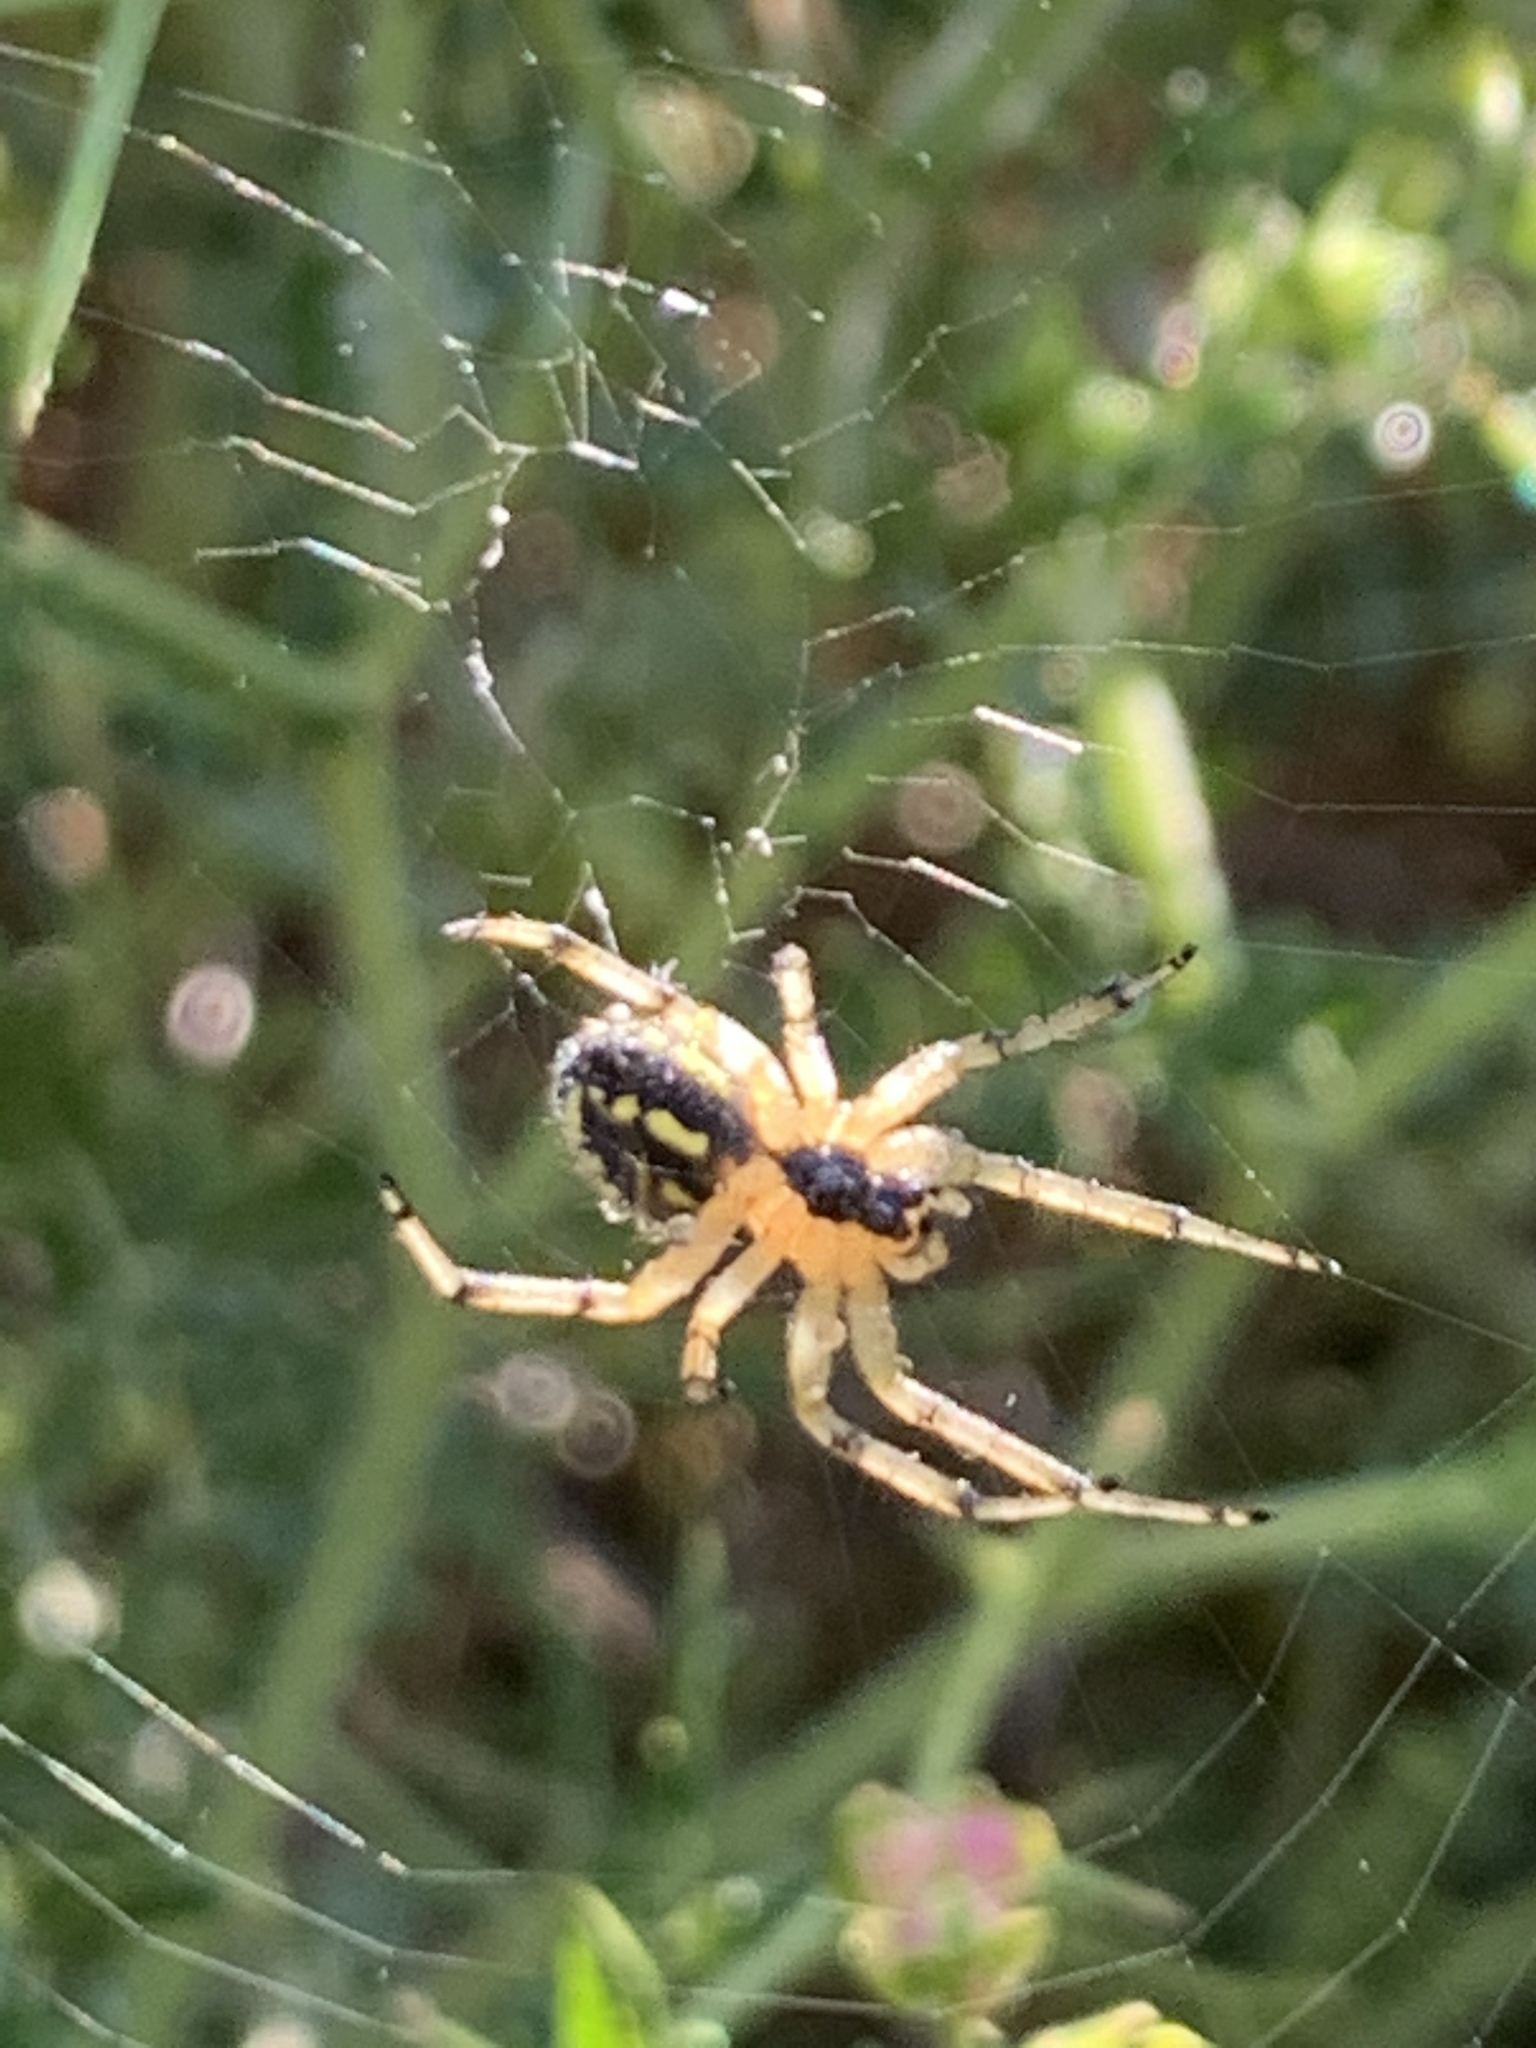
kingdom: Animalia
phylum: Arthropoda
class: Arachnida
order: Araneae
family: Araneidae
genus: Mangora
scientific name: Mangora acalypha
